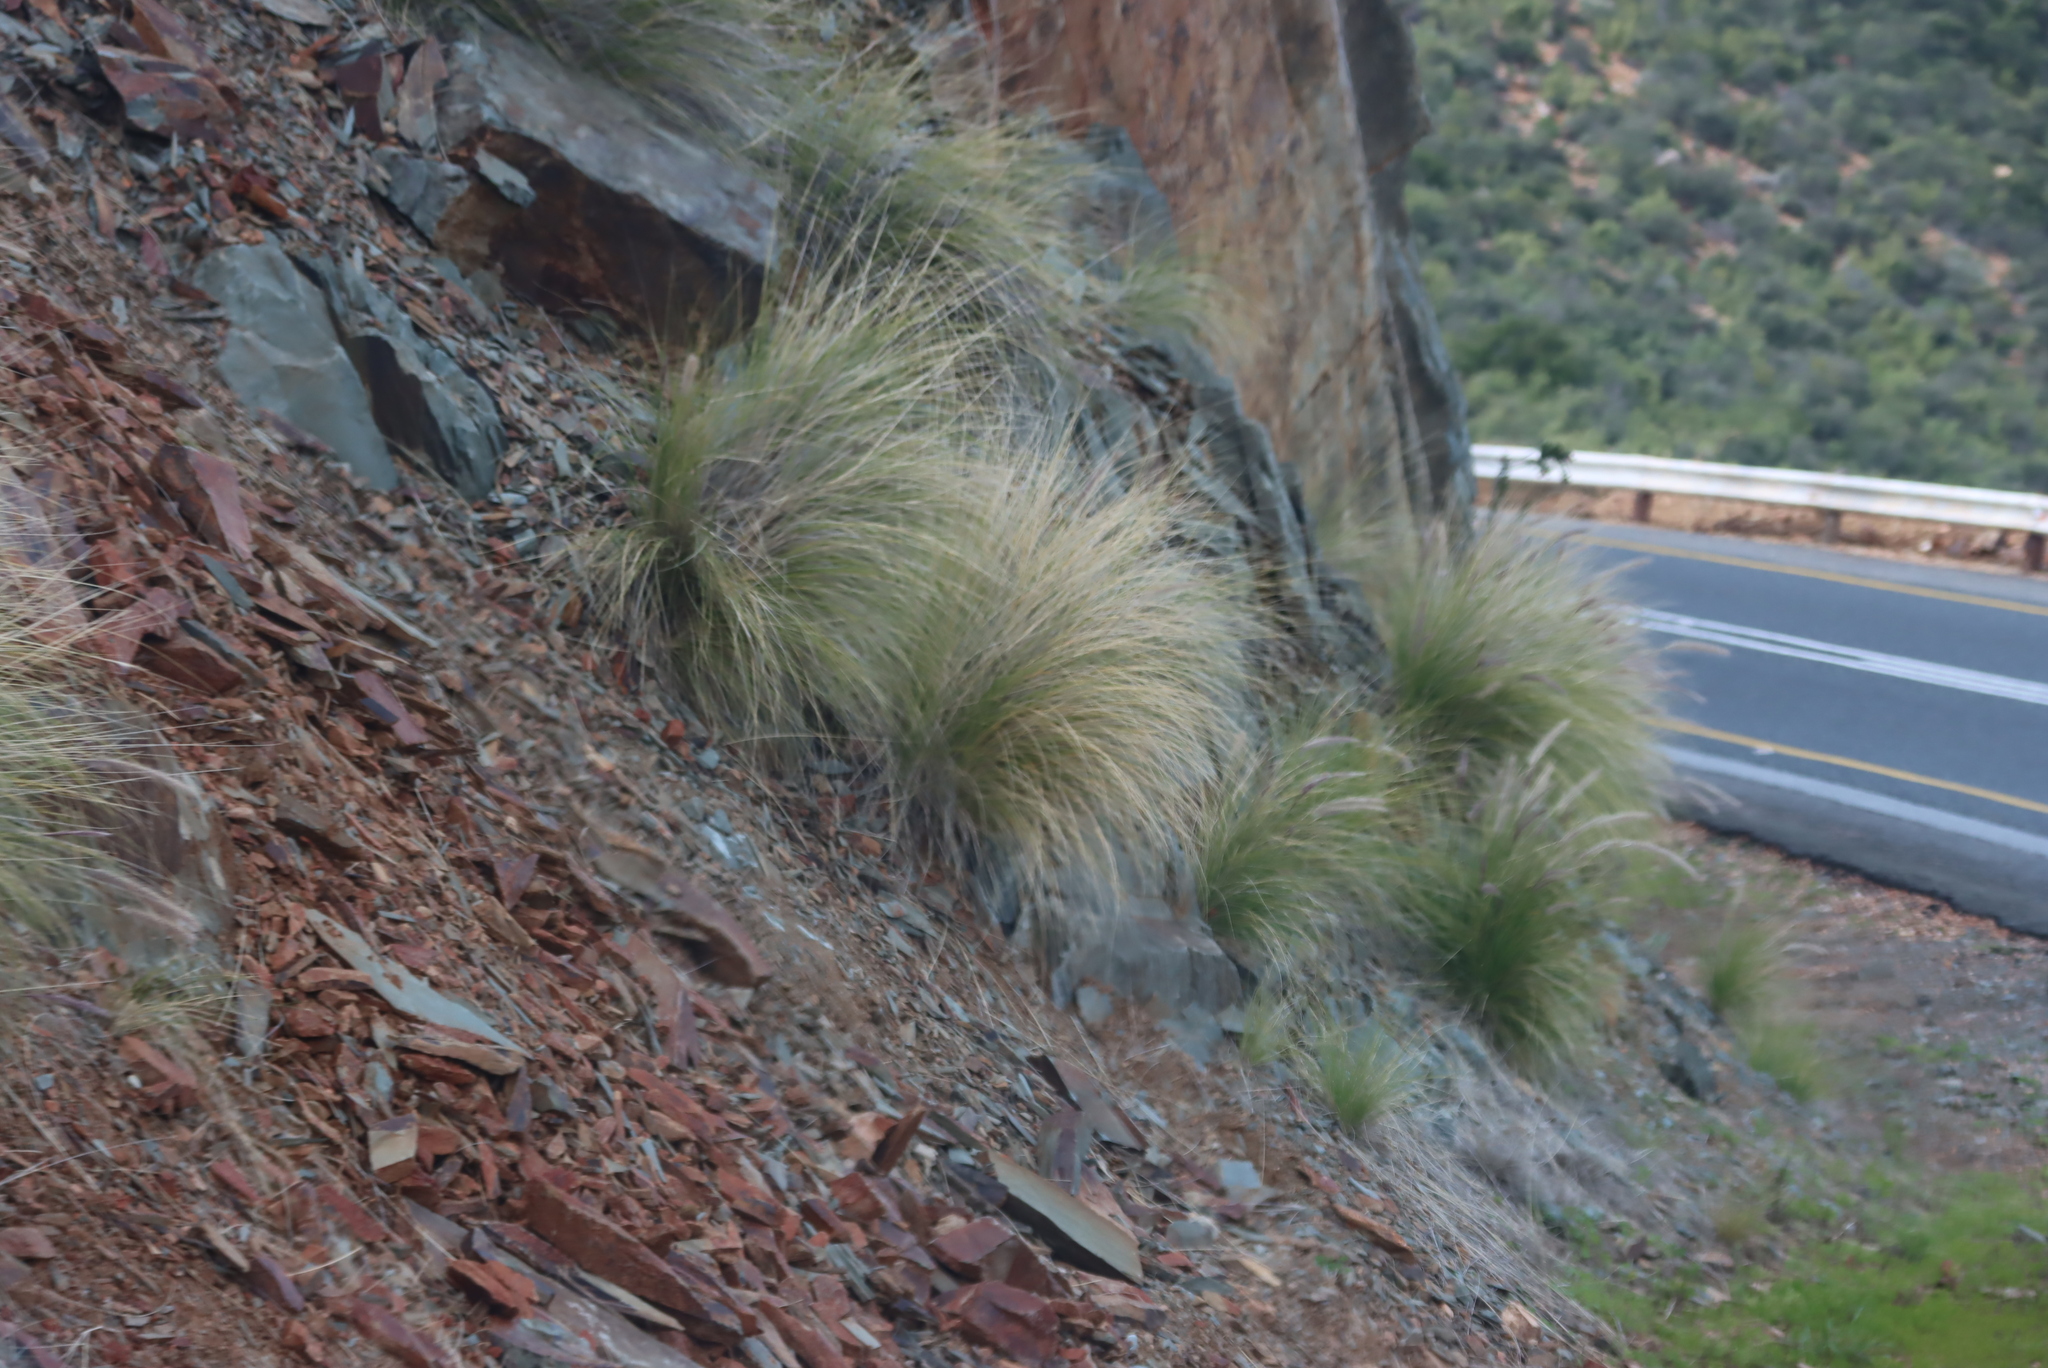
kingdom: Plantae
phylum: Tracheophyta
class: Liliopsida
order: Poales
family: Poaceae
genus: Cenchrus
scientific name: Cenchrus setaceus
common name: Crimson fountaingrass
